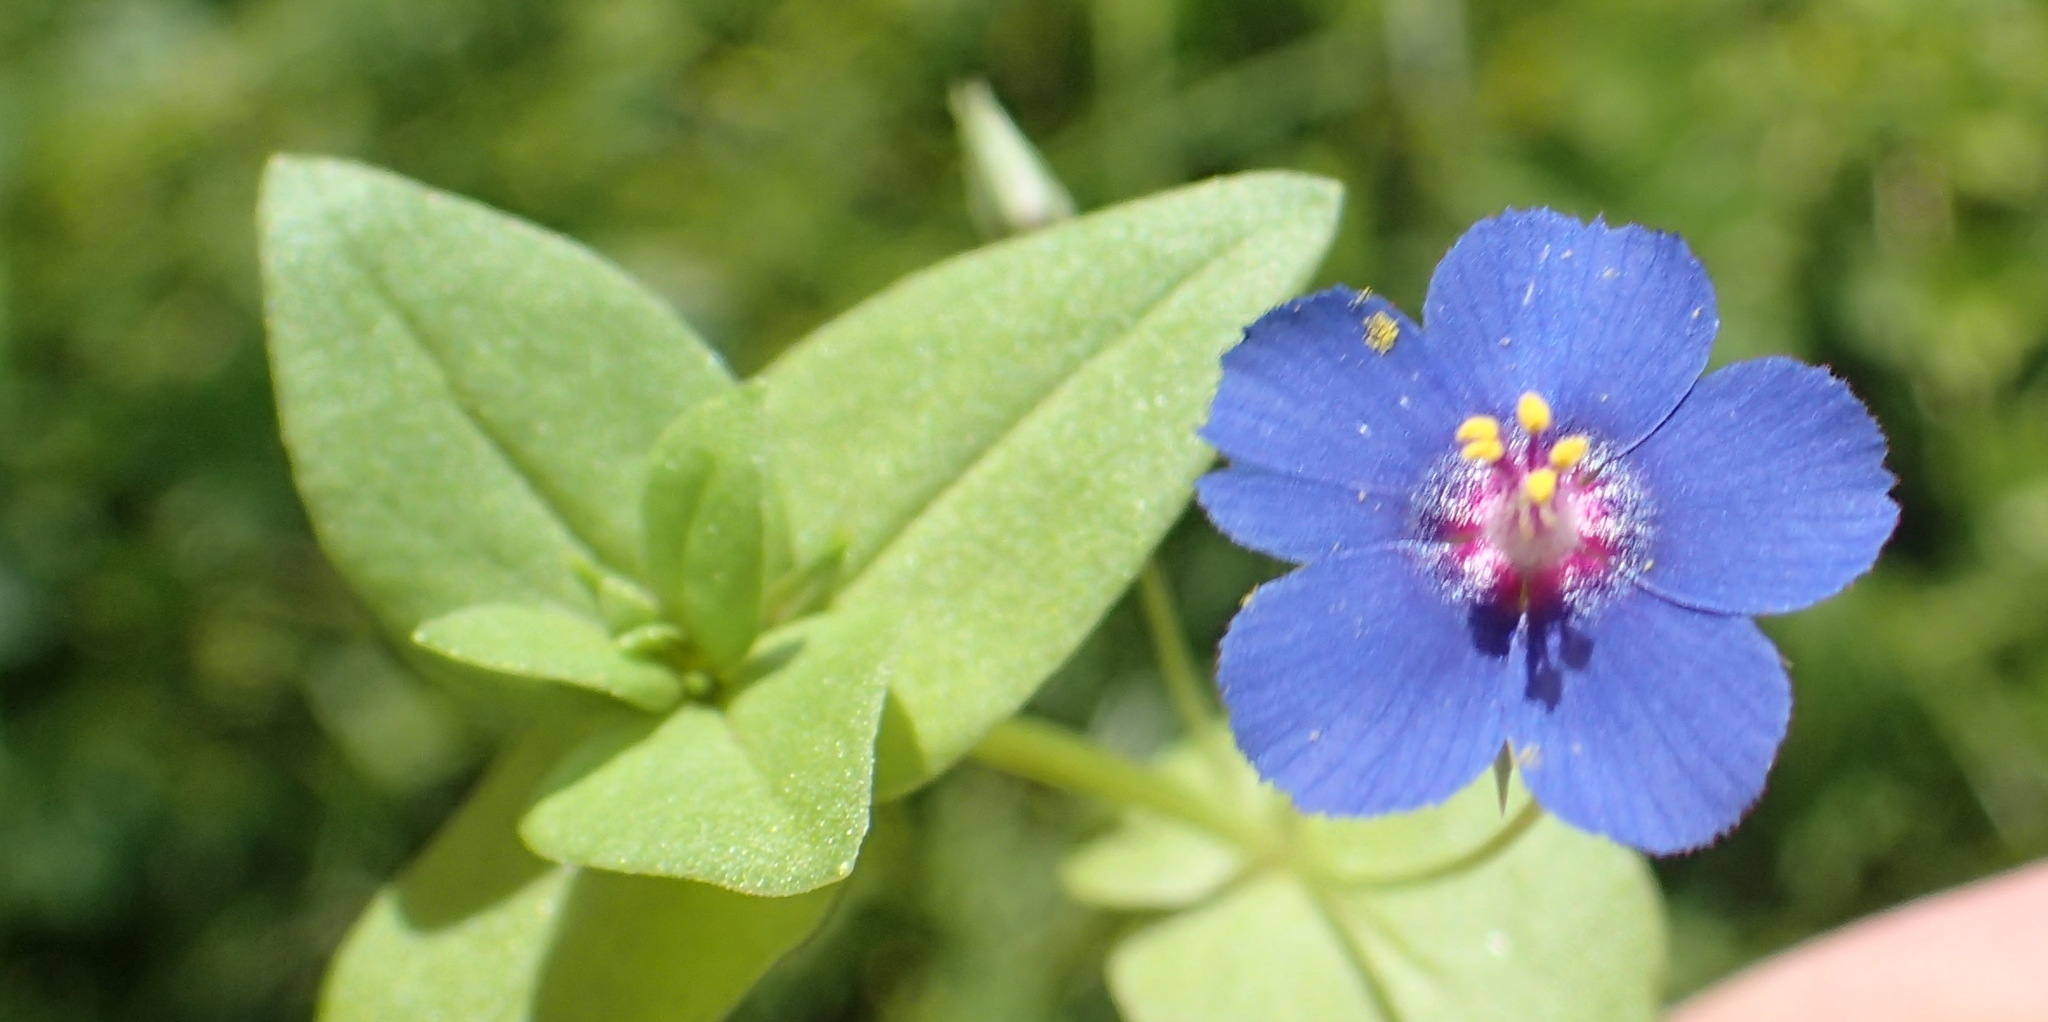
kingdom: Plantae
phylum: Tracheophyta
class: Magnoliopsida
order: Ericales
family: Primulaceae
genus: Lysimachia
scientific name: Lysimachia loeflingii
